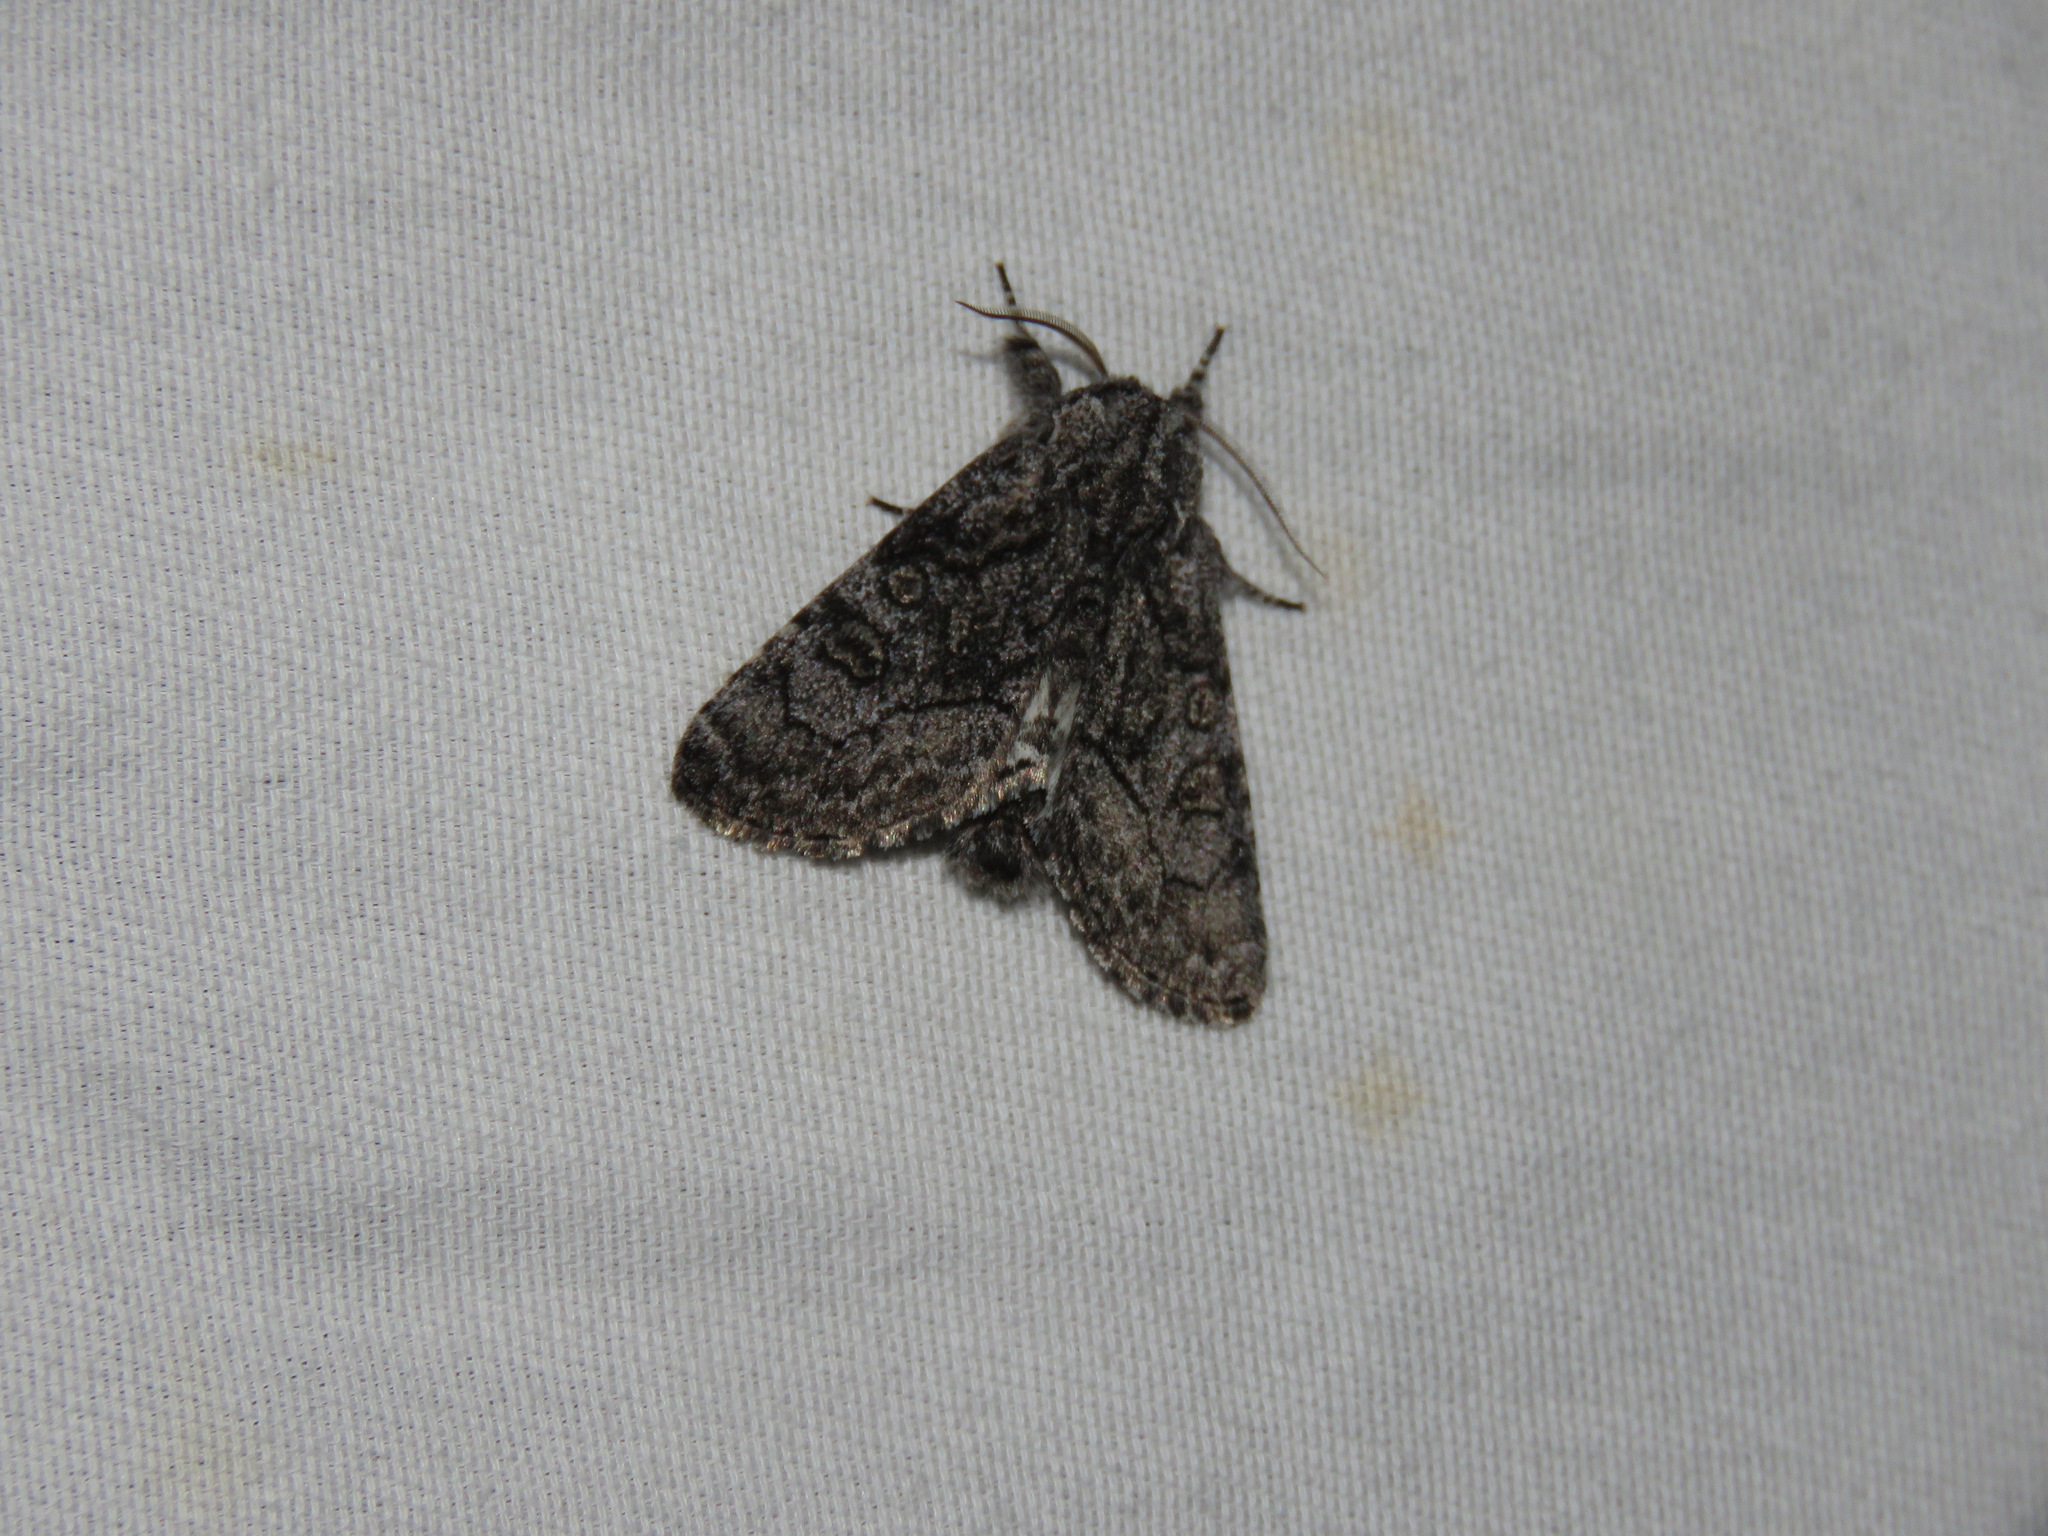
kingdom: Animalia
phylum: Arthropoda
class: Insecta
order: Lepidoptera
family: Noctuidae
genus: Raphia
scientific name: Raphia frater
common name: Brother
